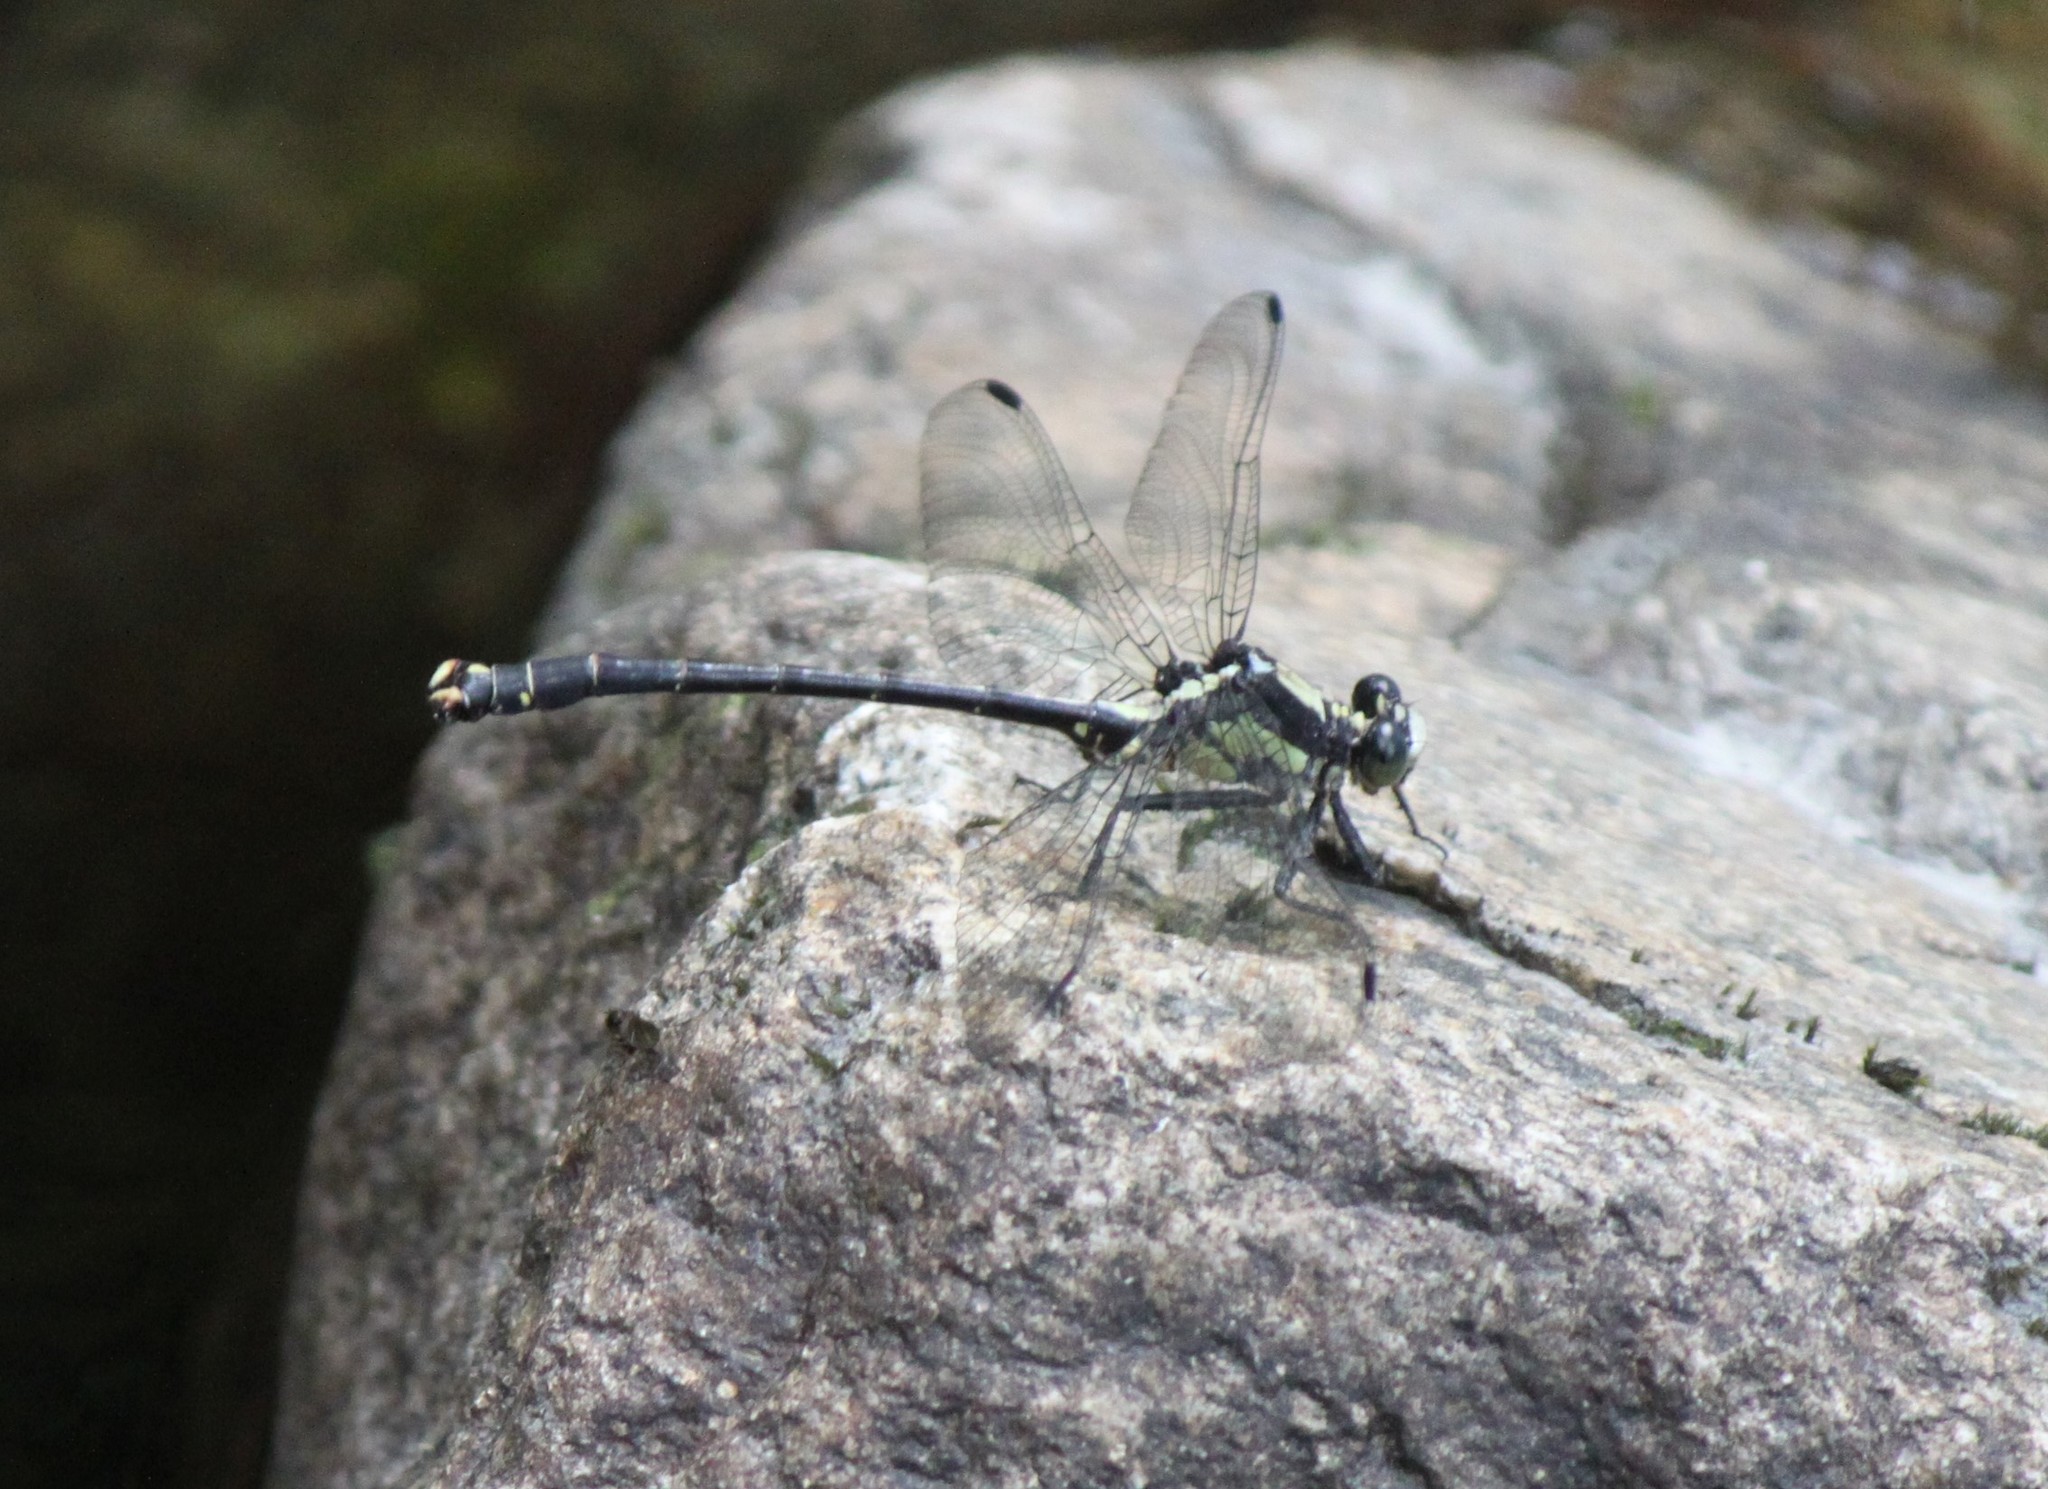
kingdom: Animalia
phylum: Arthropoda
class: Insecta
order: Odonata
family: Gomphidae
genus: Octogomphus
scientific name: Octogomphus specularis
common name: Grappletail
